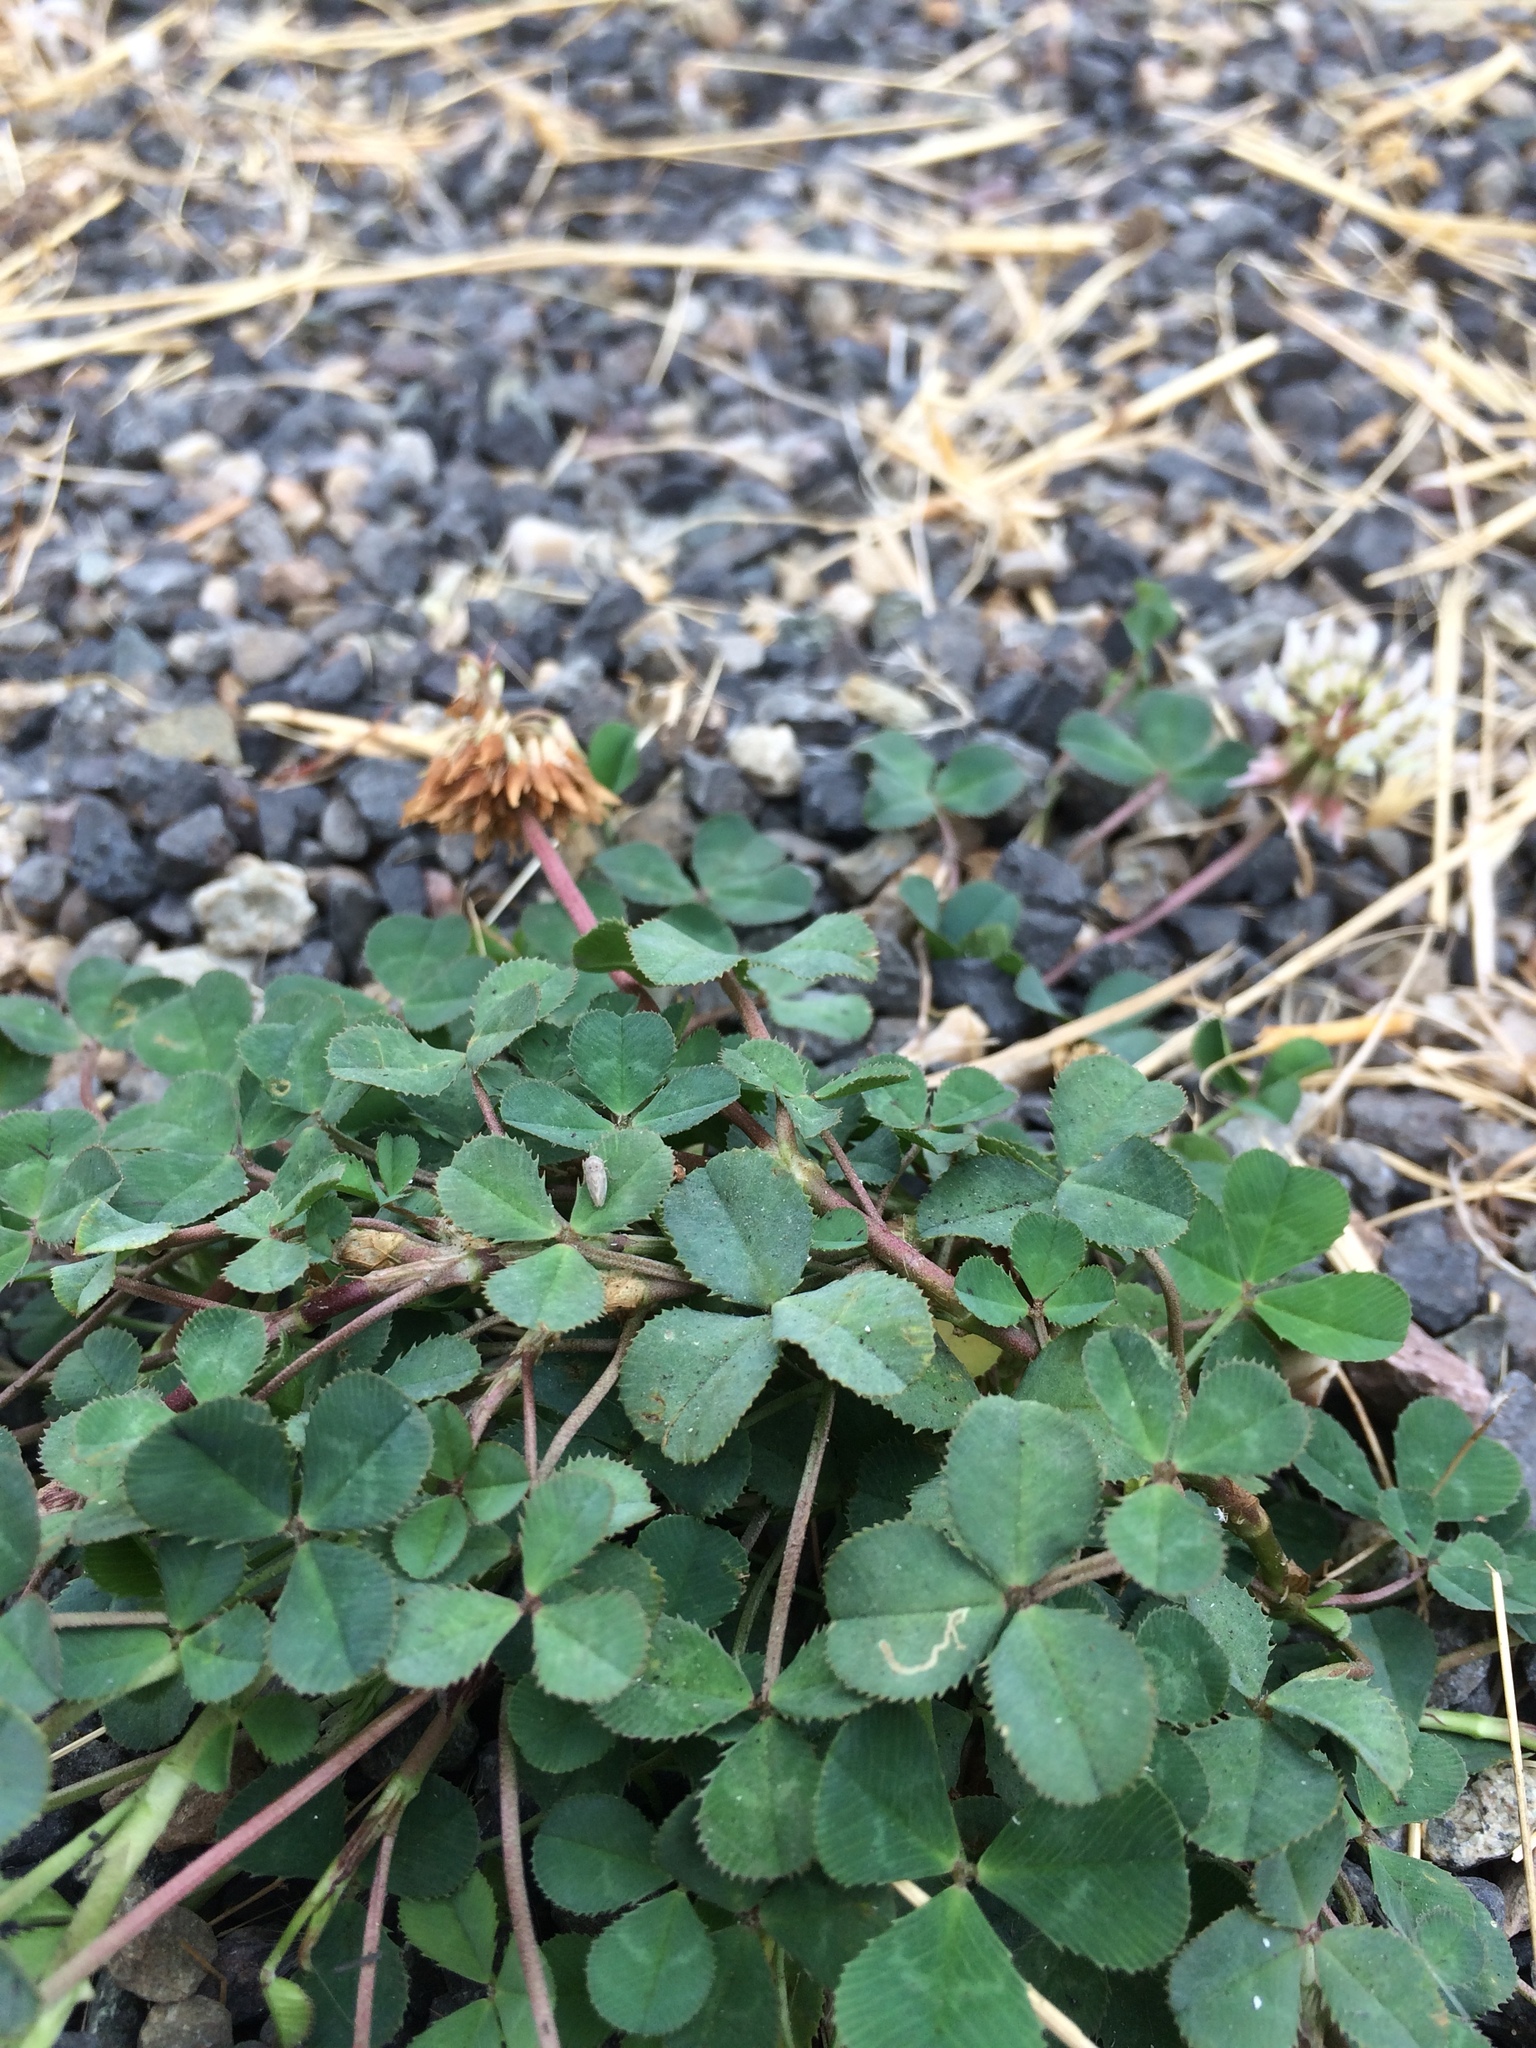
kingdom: Plantae
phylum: Tracheophyta
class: Magnoliopsida
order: Fabales
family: Fabaceae
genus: Trifolium
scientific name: Trifolium repens
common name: White clover
